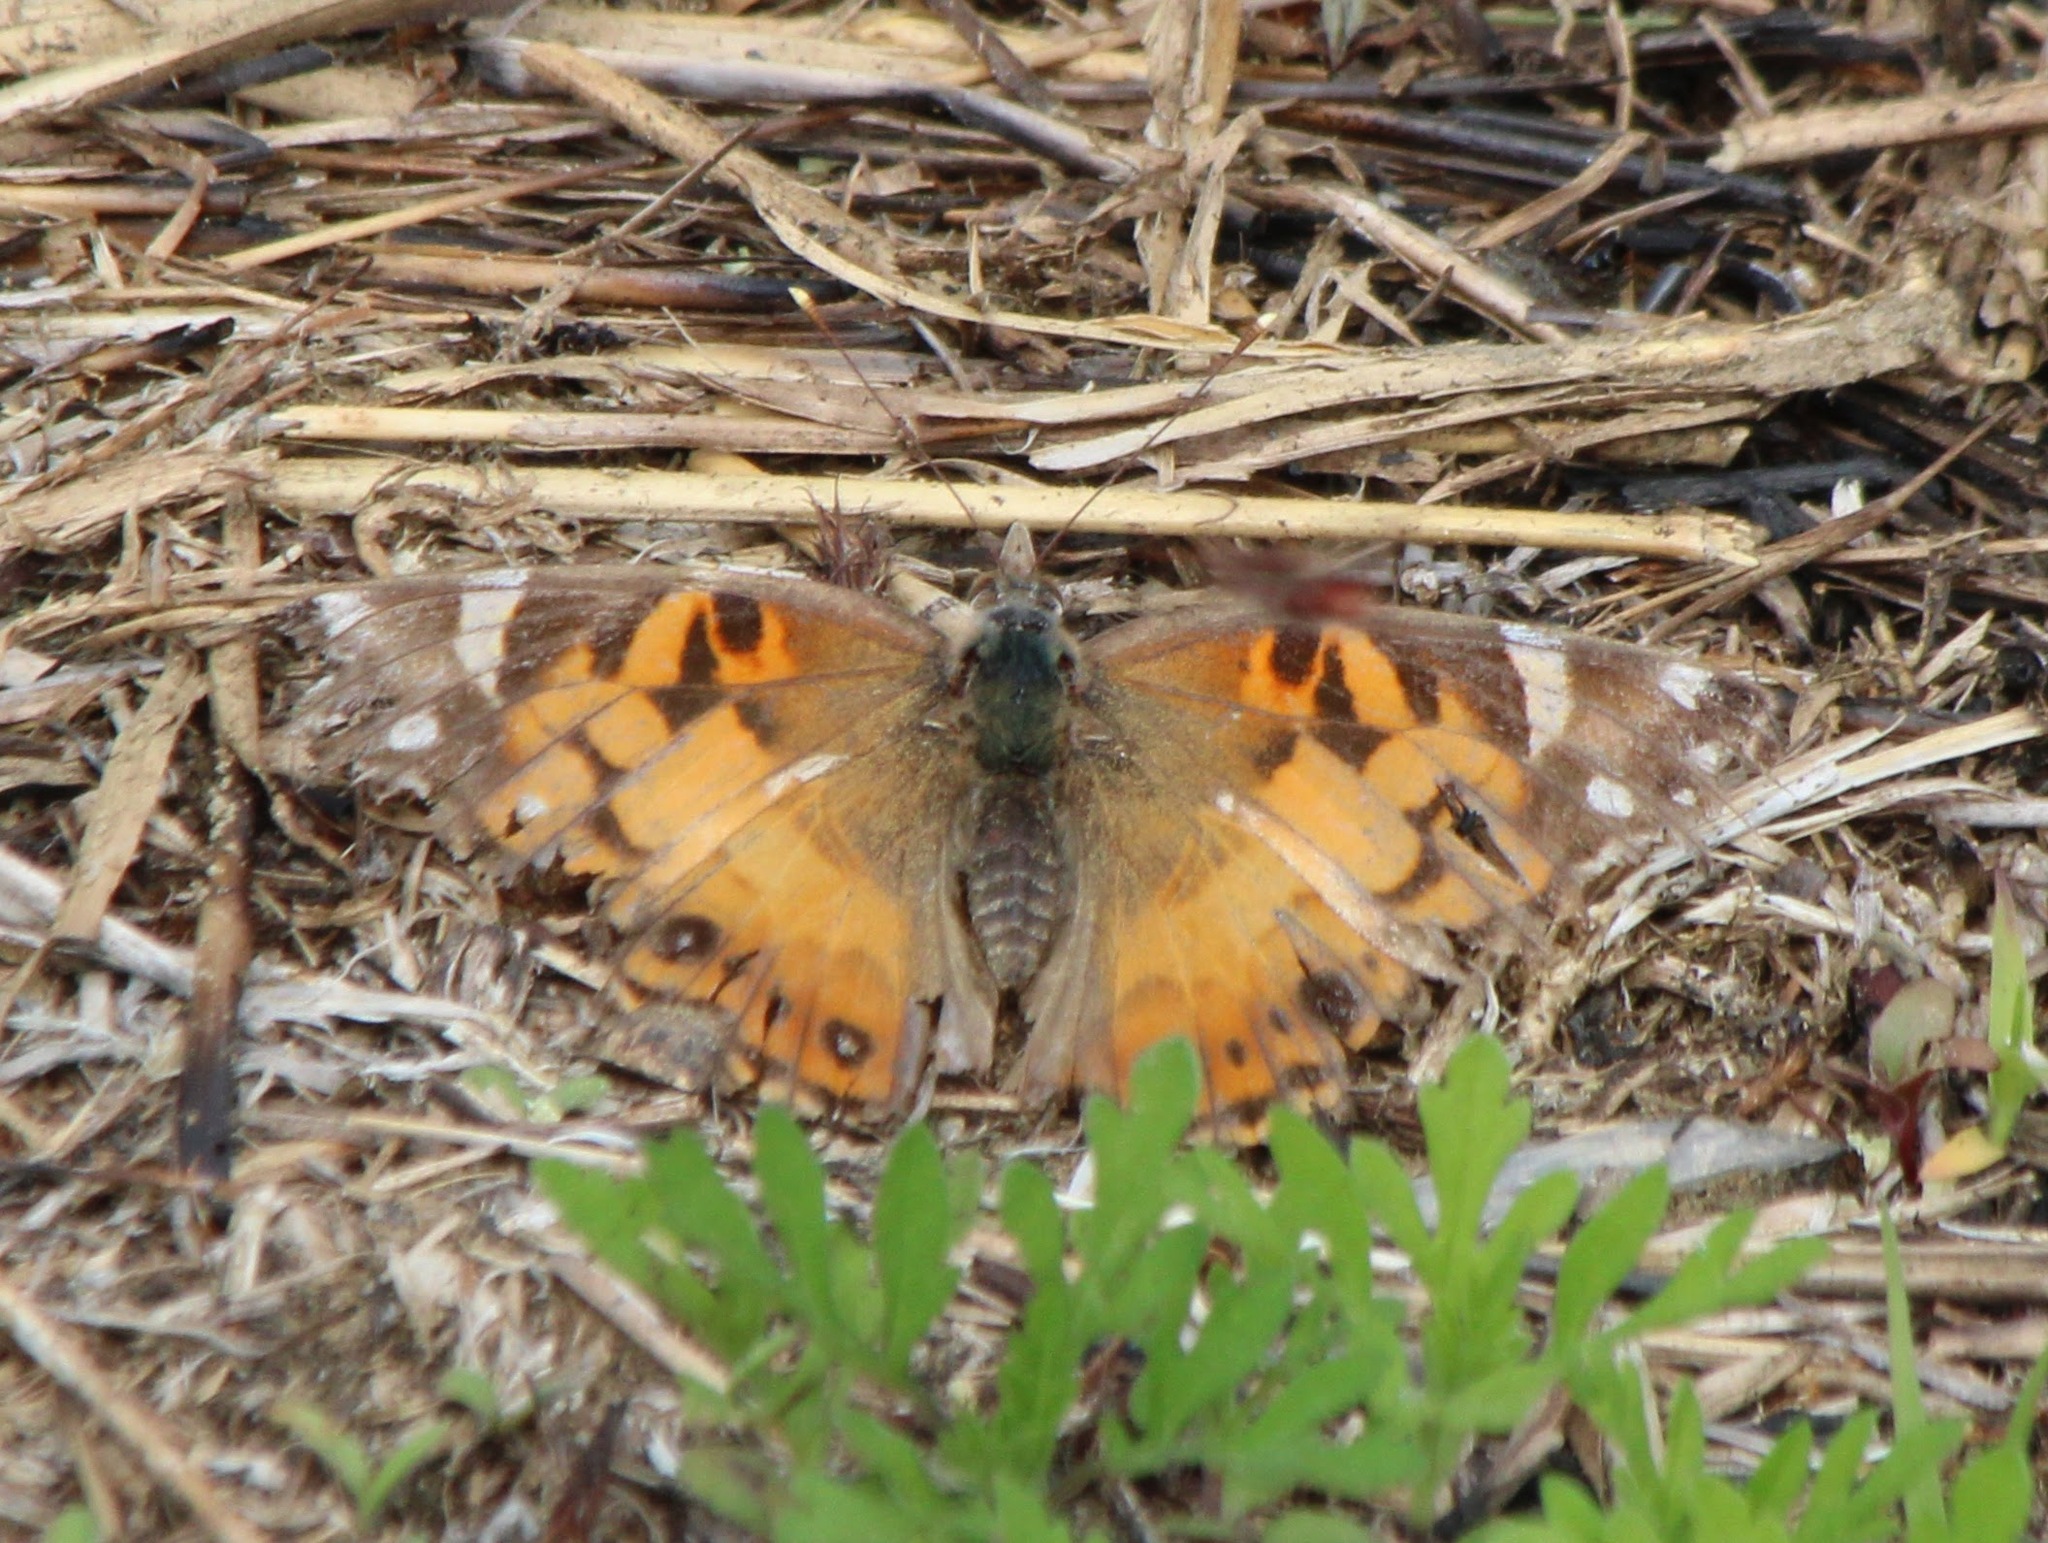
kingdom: Animalia
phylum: Arthropoda
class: Insecta
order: Lepidoptera
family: Nymphalidae
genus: Vanessa
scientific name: Vanessa virginiensis
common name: American lady
